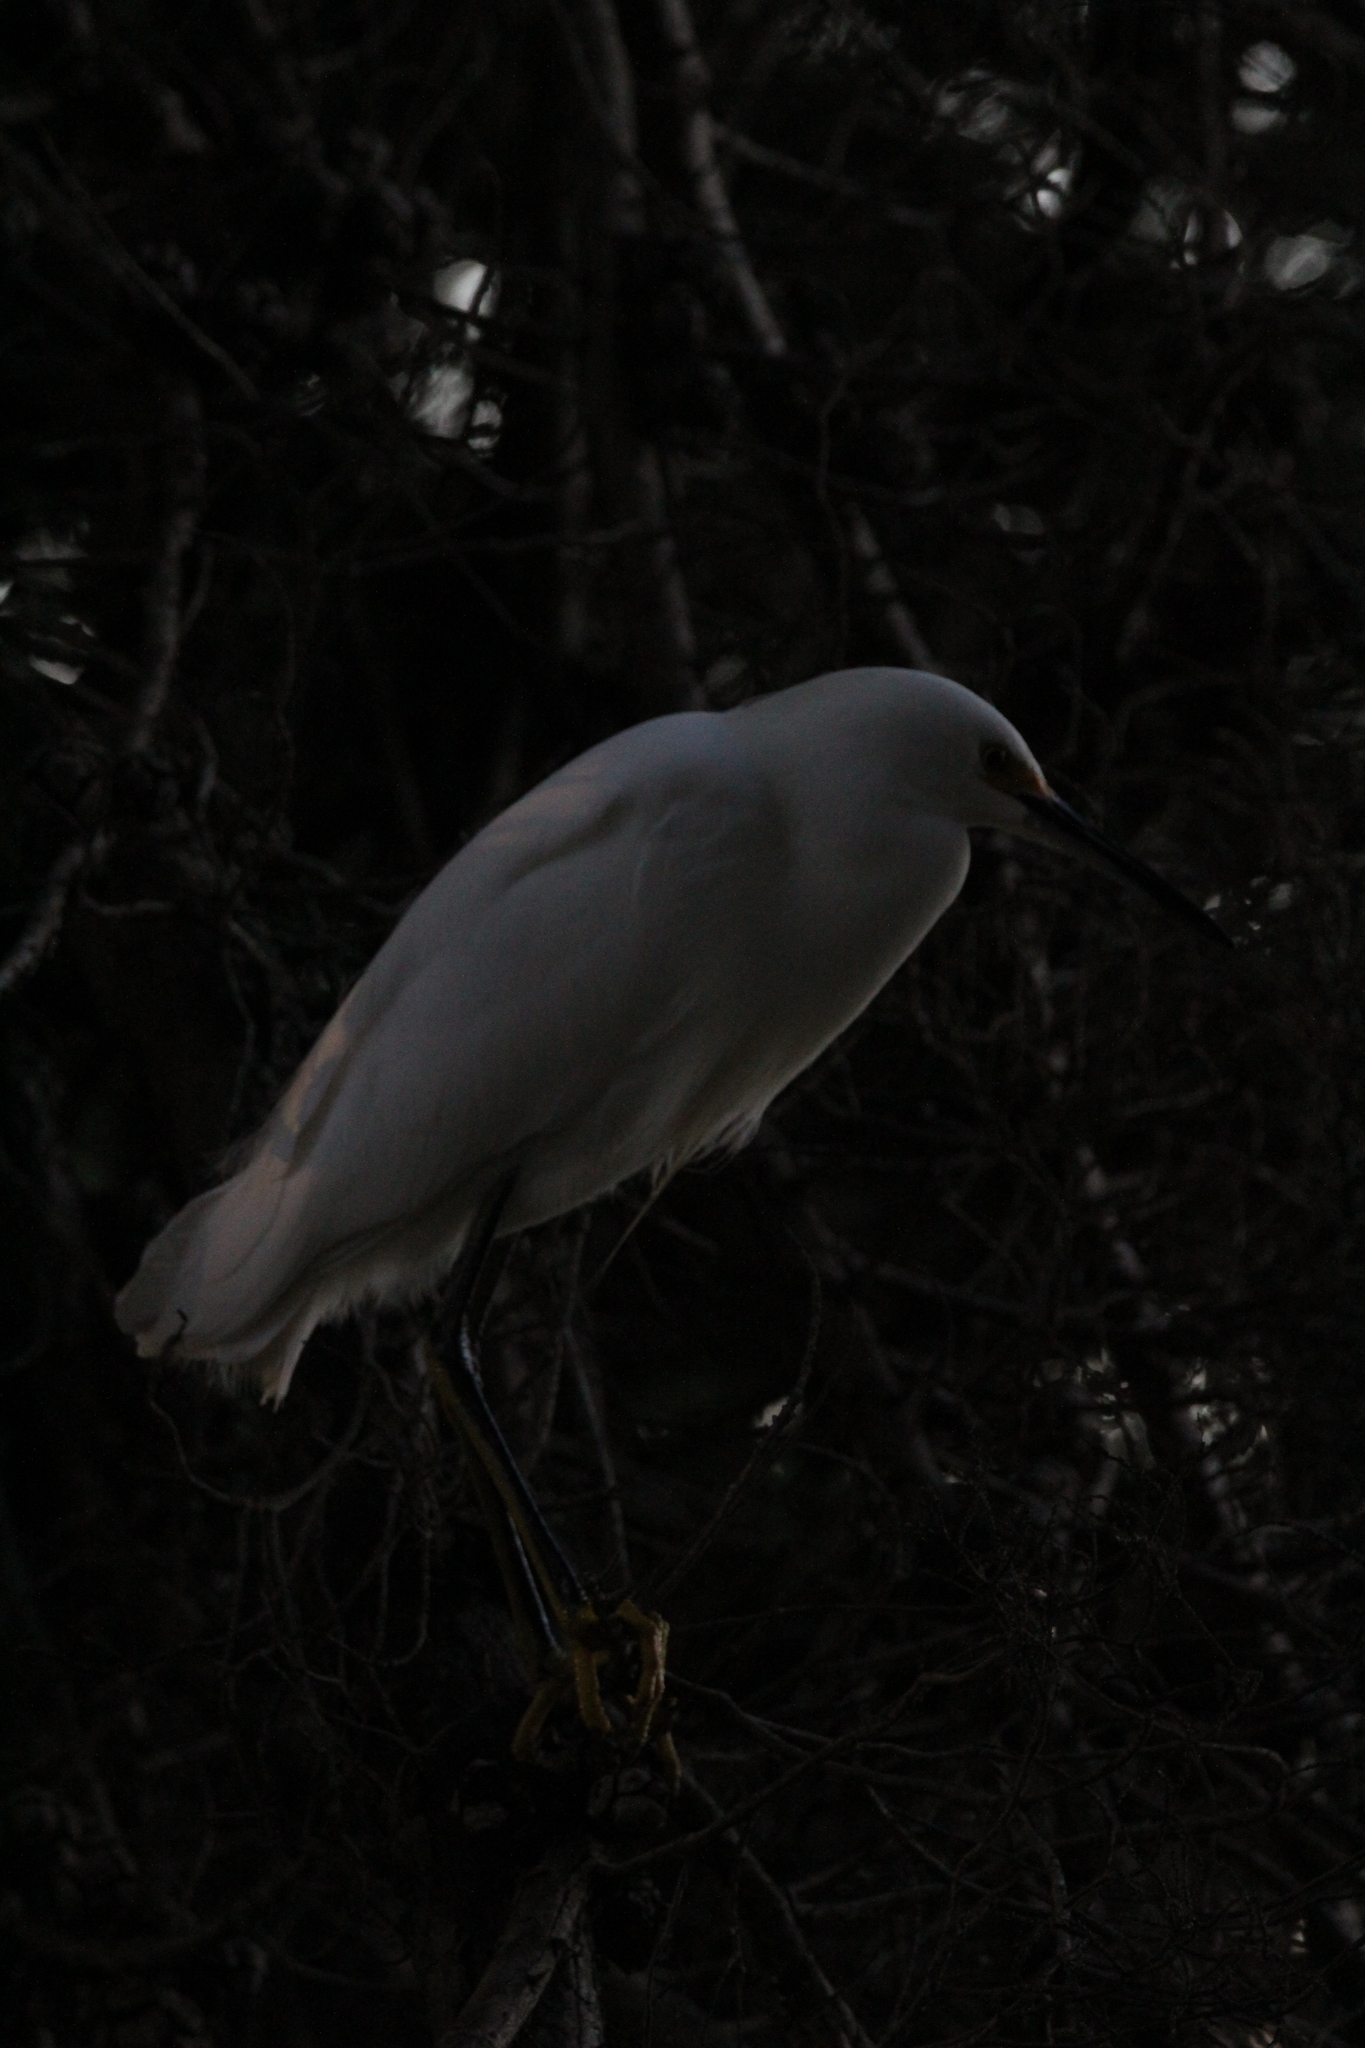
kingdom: Animalia
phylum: Chordata
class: Aves
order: Pelecaniformes
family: Ardeidae
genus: Egretta
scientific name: Egretta thula
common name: Snowy egret
